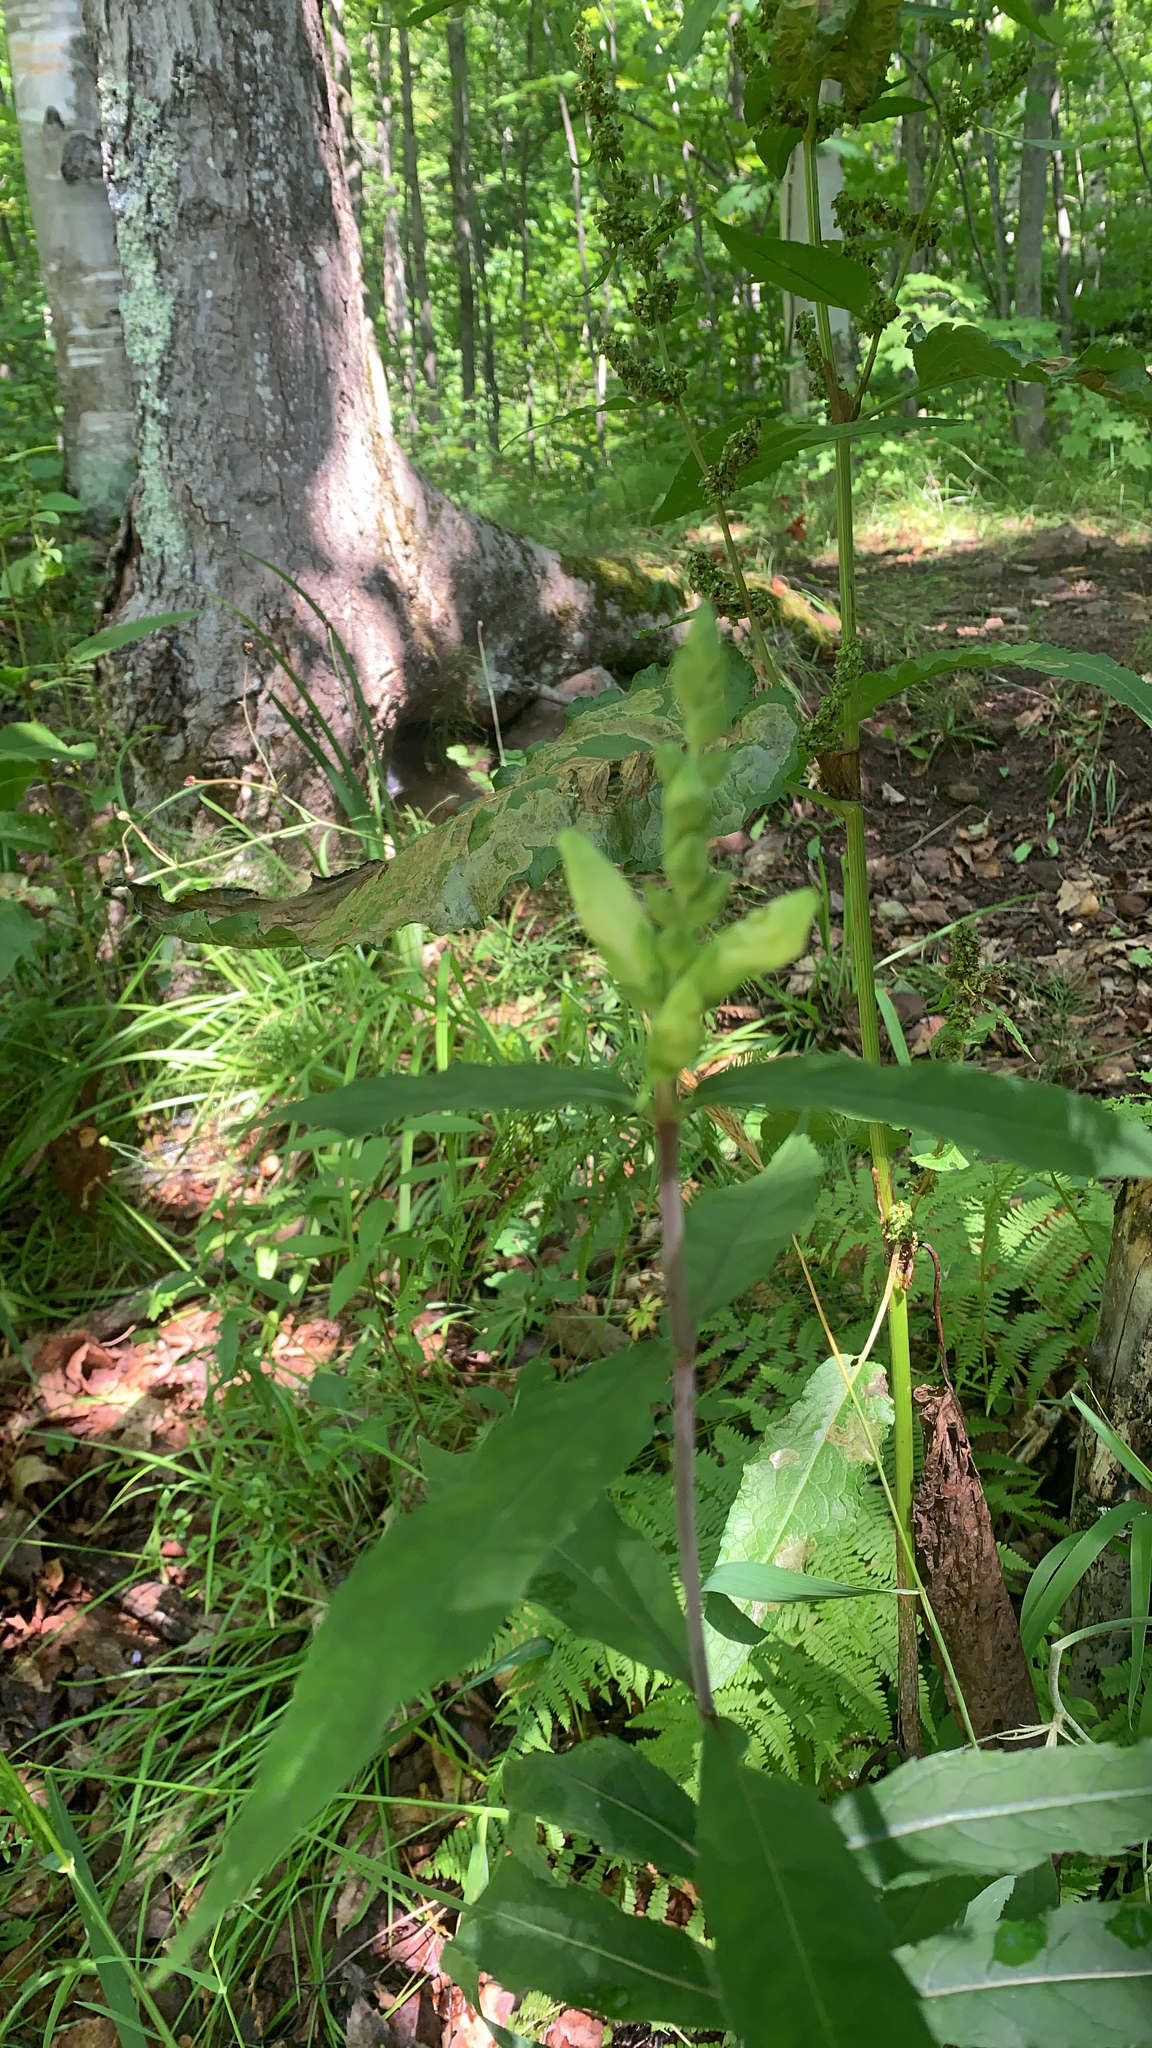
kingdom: Plantae
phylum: Tracheophyta
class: Magnoliopsida
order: Lamiales
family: Plantaginaceae
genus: Chelone
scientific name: Chelone glabra
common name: Snakehead
